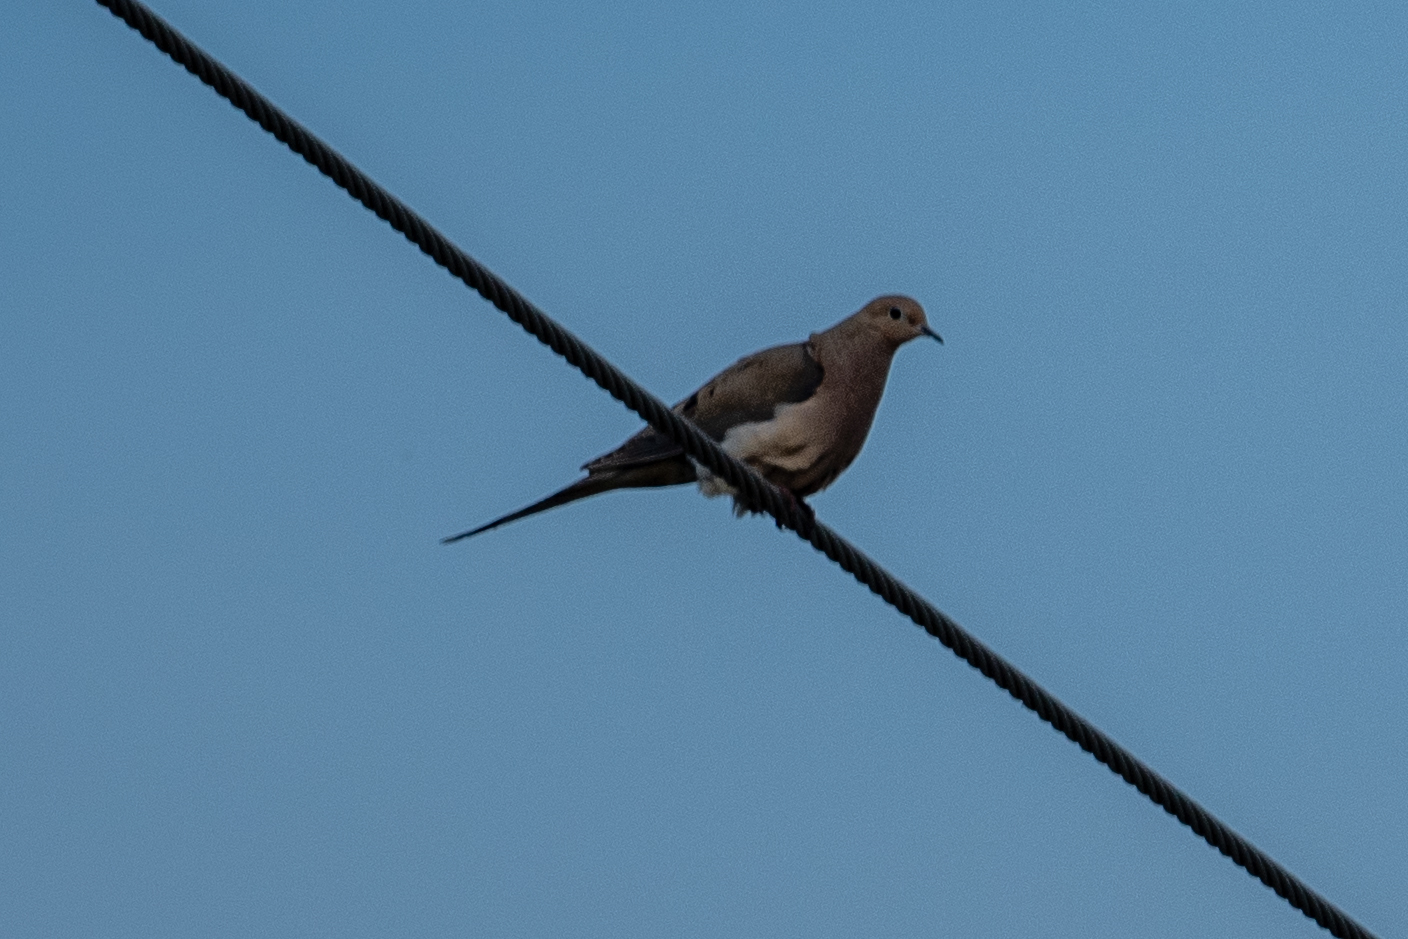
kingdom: Animalia
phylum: Chordata
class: Aves
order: Columbiformes
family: Columbidae
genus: Zenaida
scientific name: Zenaida macroura
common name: Mourning dove
